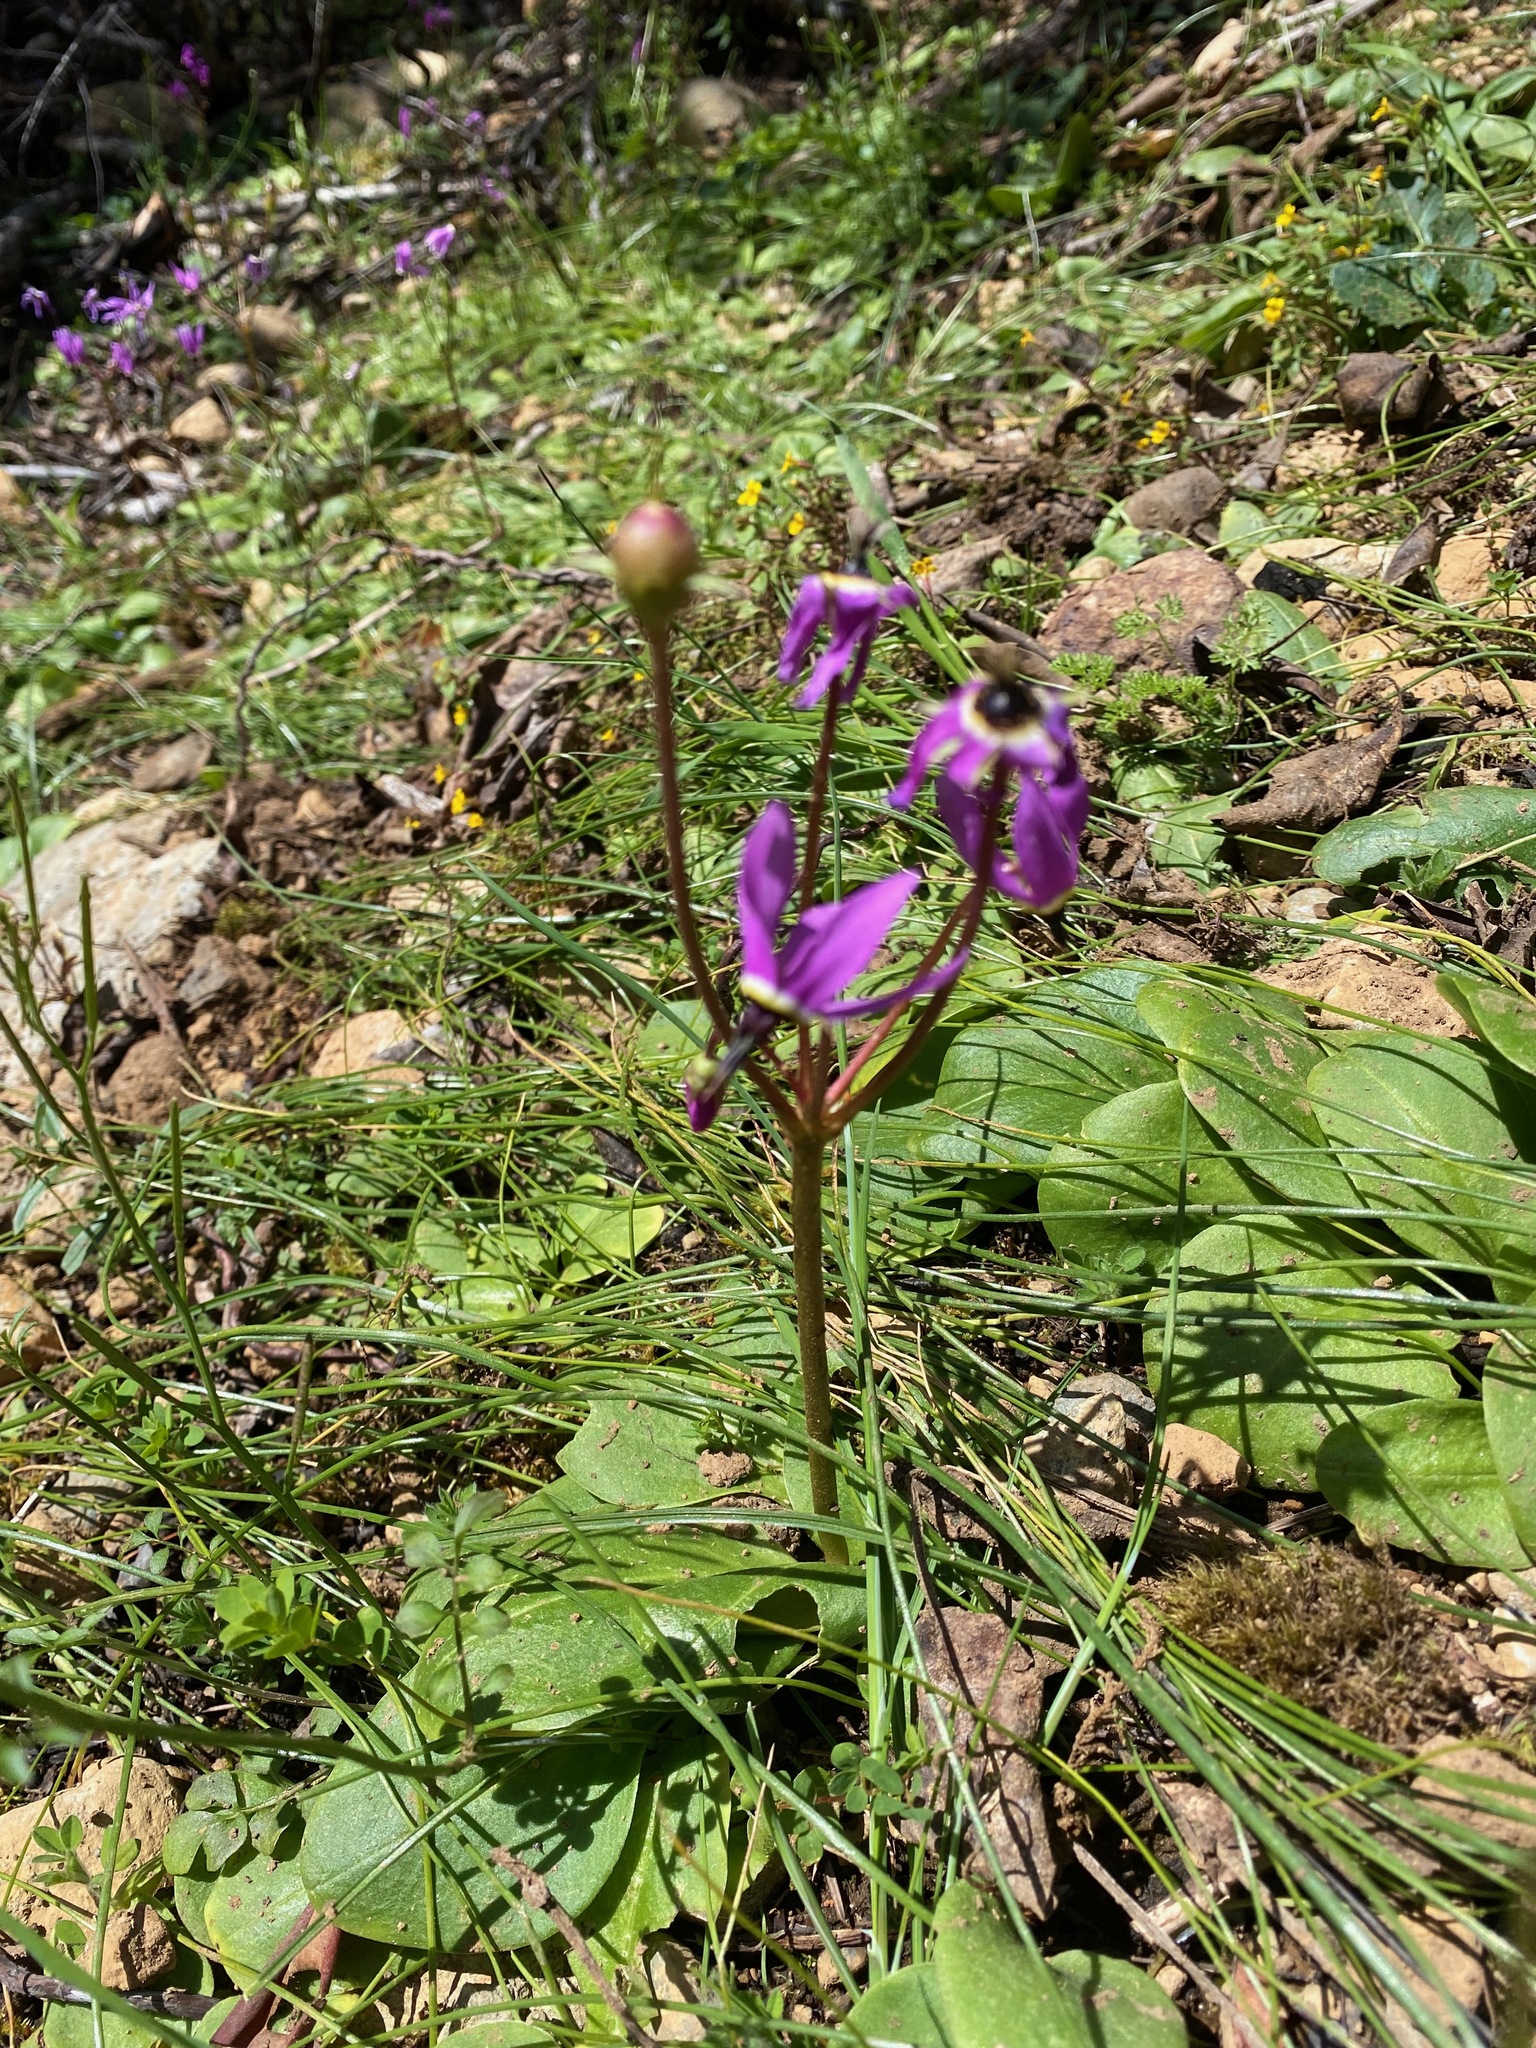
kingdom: Plantae
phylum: Tracheophyta
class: Magnoliopsida
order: Ericales
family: Primulaceae
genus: Dodecatheon
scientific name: Dodecatheon hendersonii
